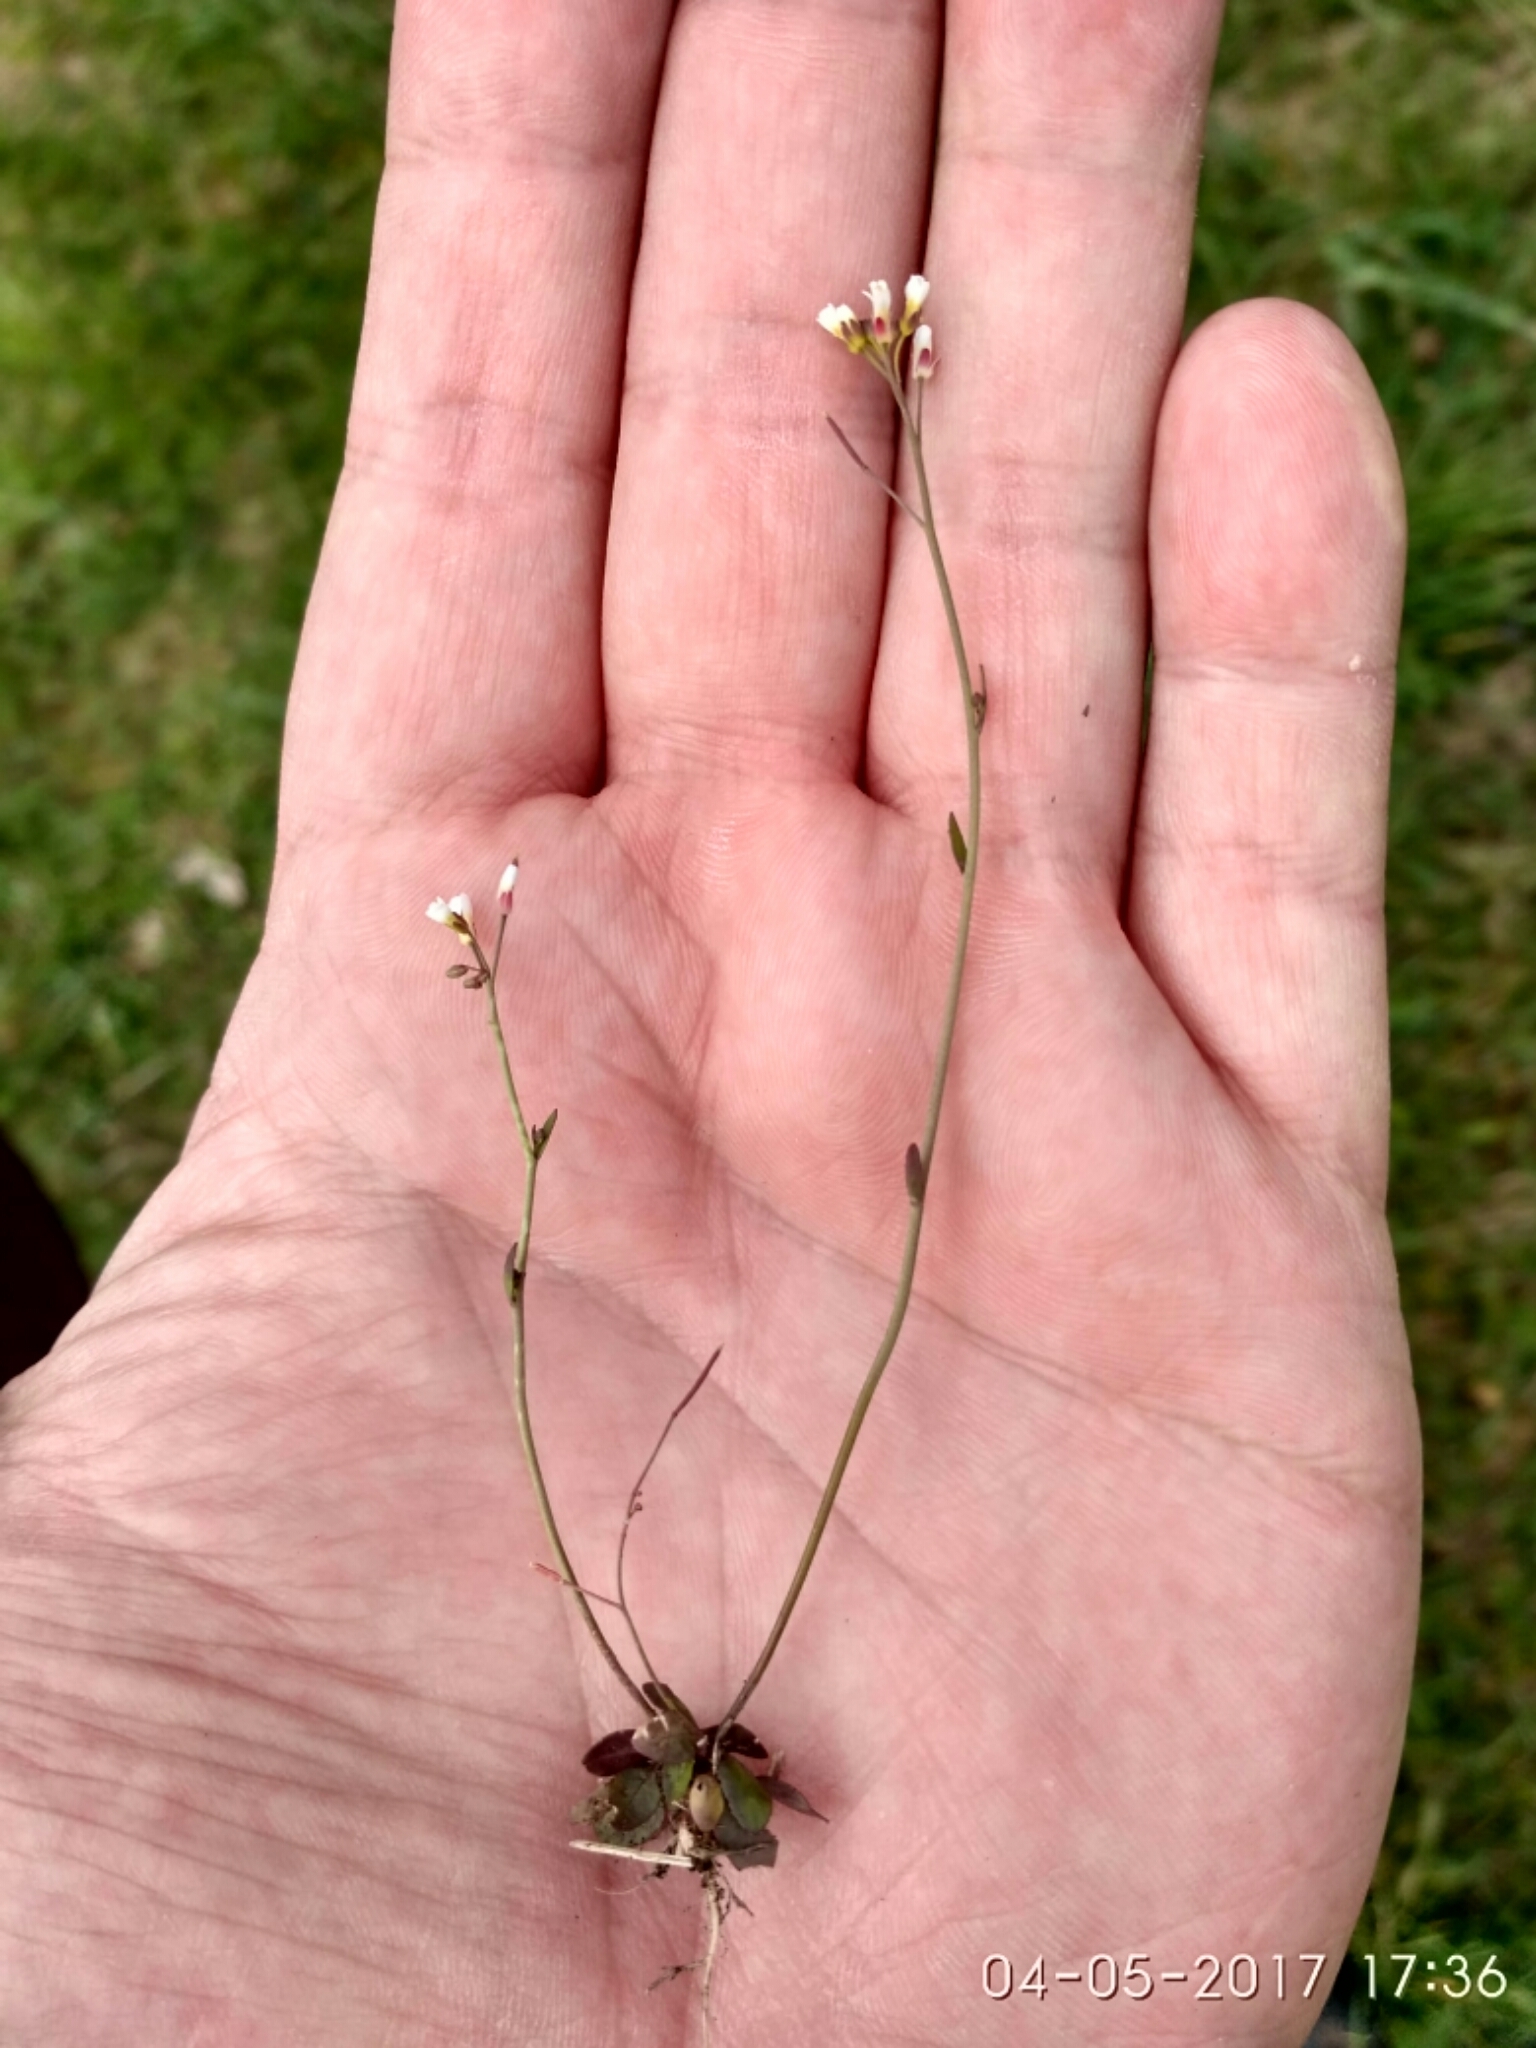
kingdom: Plantae
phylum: Tracheophyta
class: Magnoliopsida
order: Brassicales
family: Brassicaceae
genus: Arabidopsis
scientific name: Arabidopsis thaliana
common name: Thale cress
